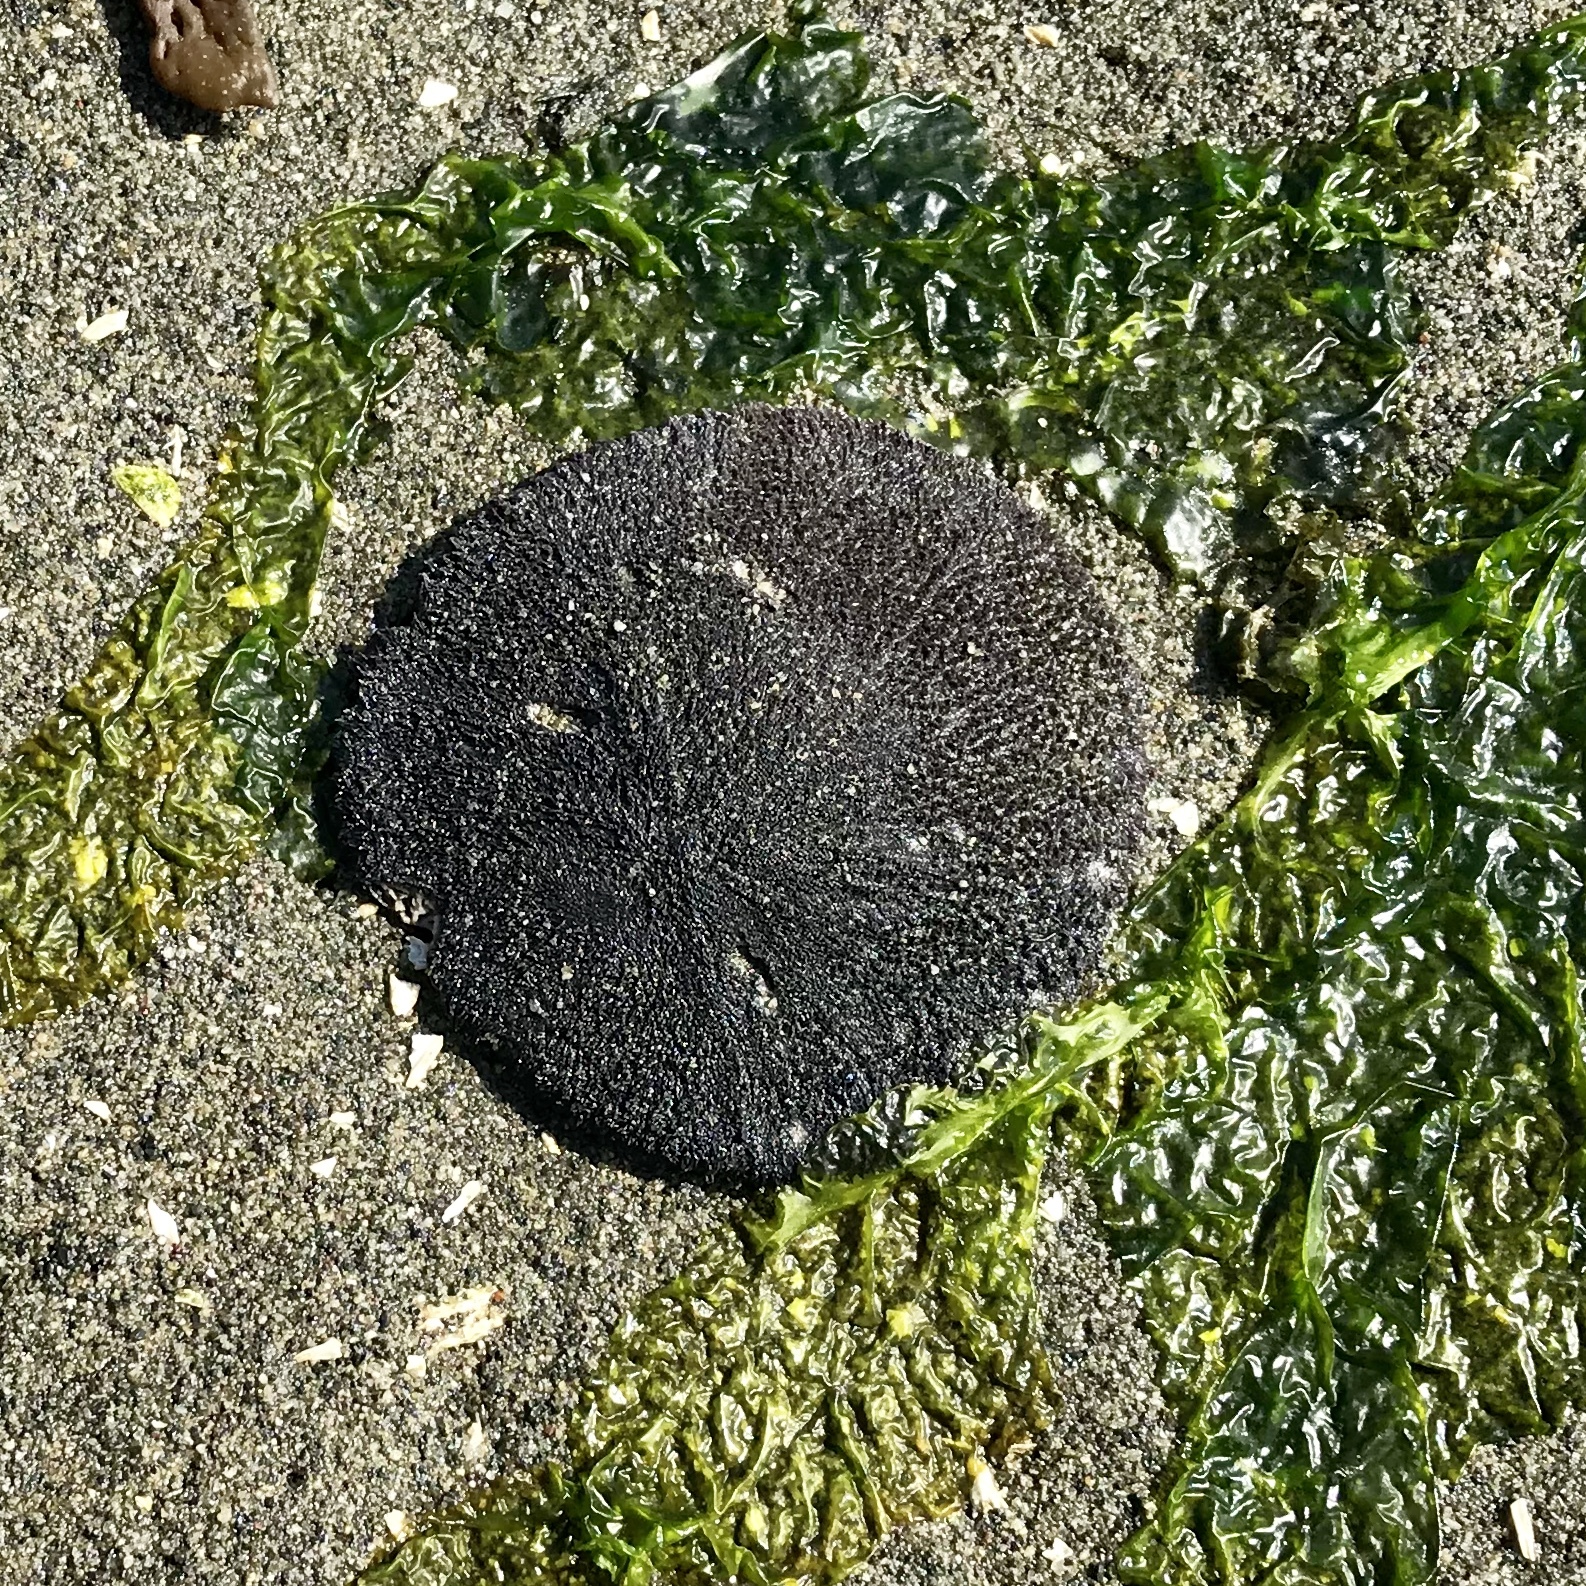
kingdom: Animalia
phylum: Echinodermata
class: Echinoidea
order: Echinolampadacea
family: Dendrasteridae
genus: Dendraster
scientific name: Dendraster excentricus
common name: Eccentric sand dollar sea urchin
